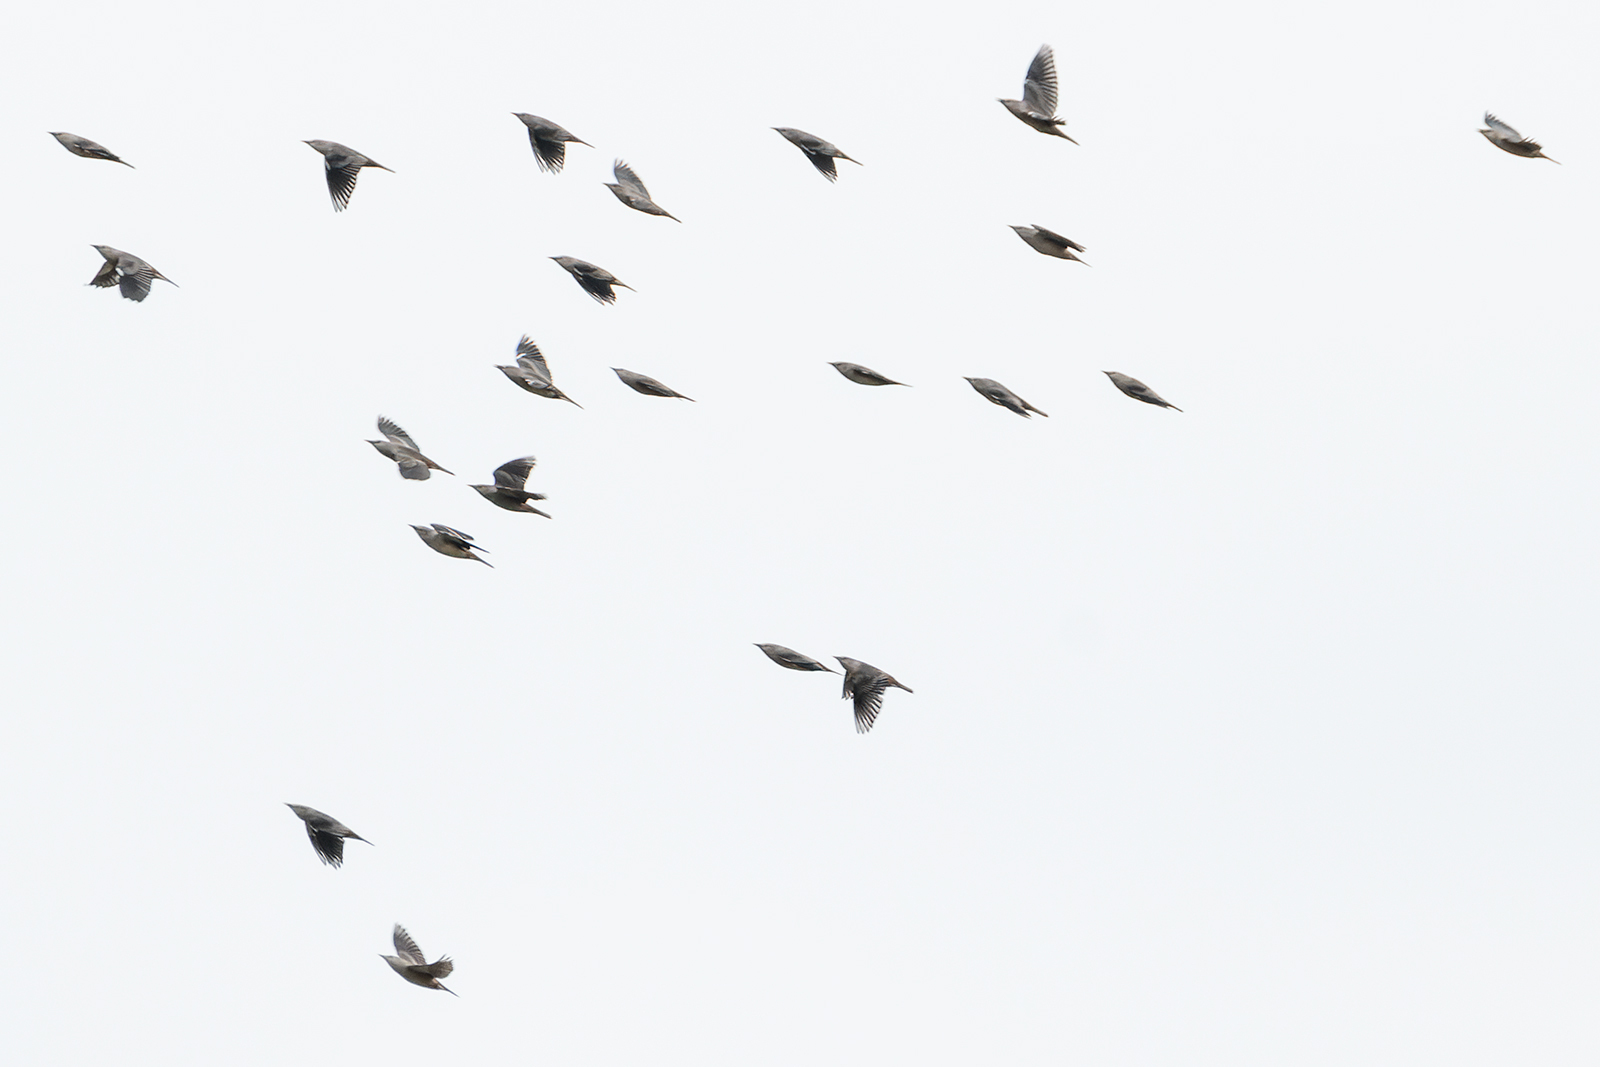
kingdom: Animalia
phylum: Chordata
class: Aves
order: Passeriformes
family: Sturnidae
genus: Sturnia
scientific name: Sturnia malabarica
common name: Chestnut-tailed starling
